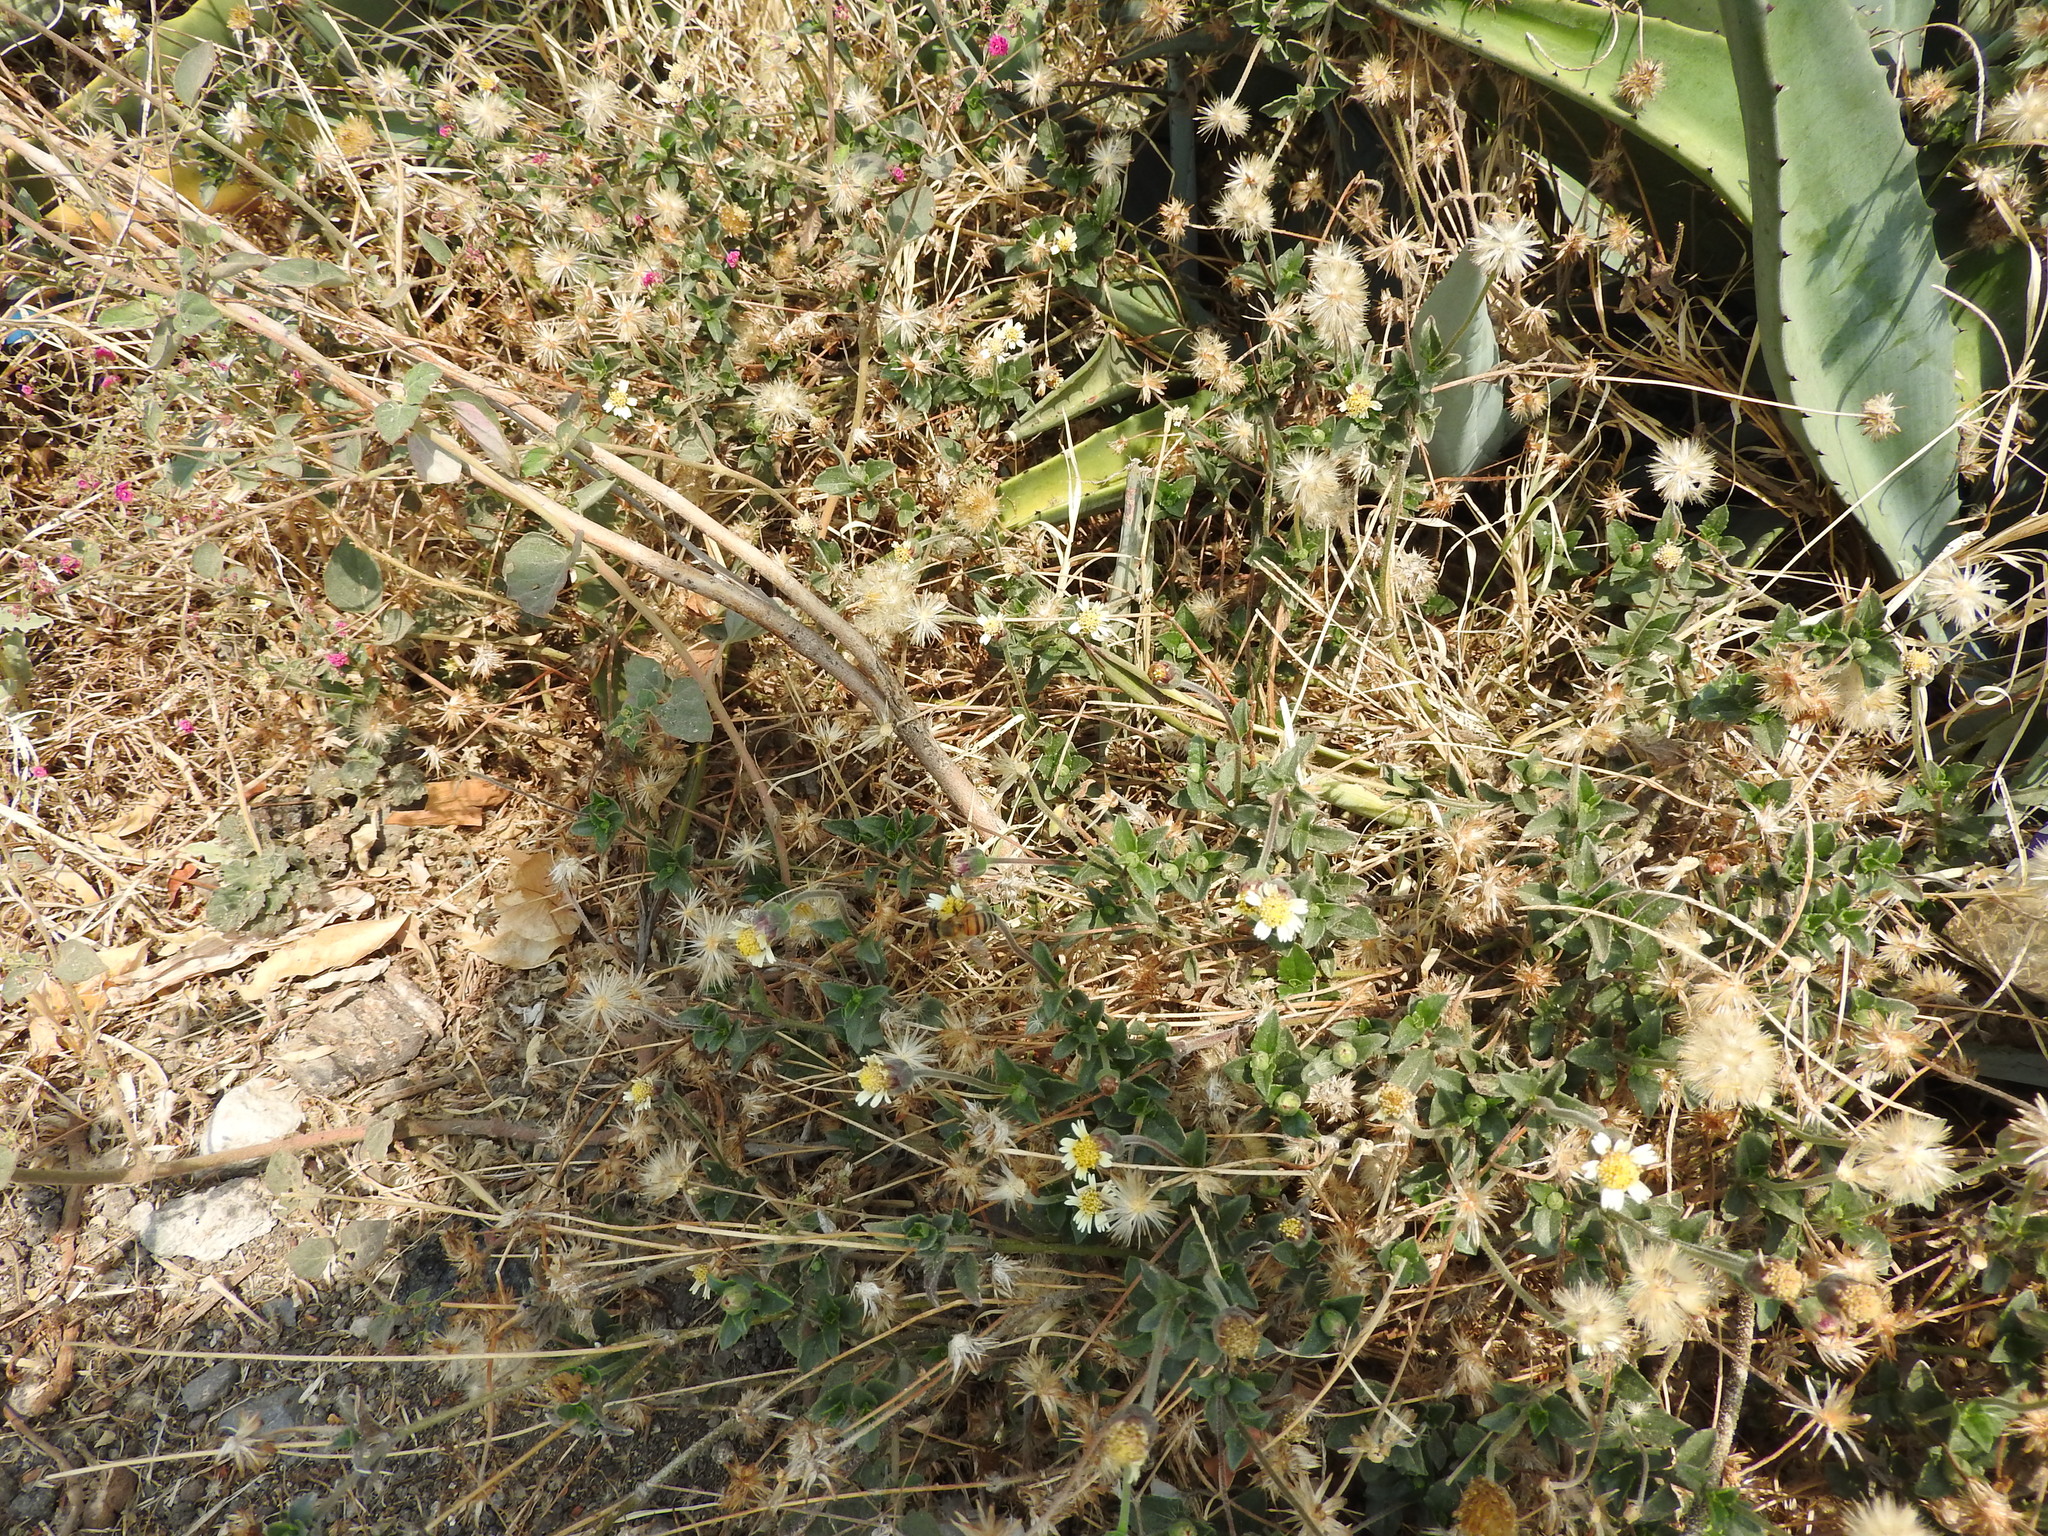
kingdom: Plantae
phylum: Tracheophyta
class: Magnoliopsida
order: Asterales
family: Asteraceae
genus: Tridax
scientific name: Tridax procumbens
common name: Coatbuttons
